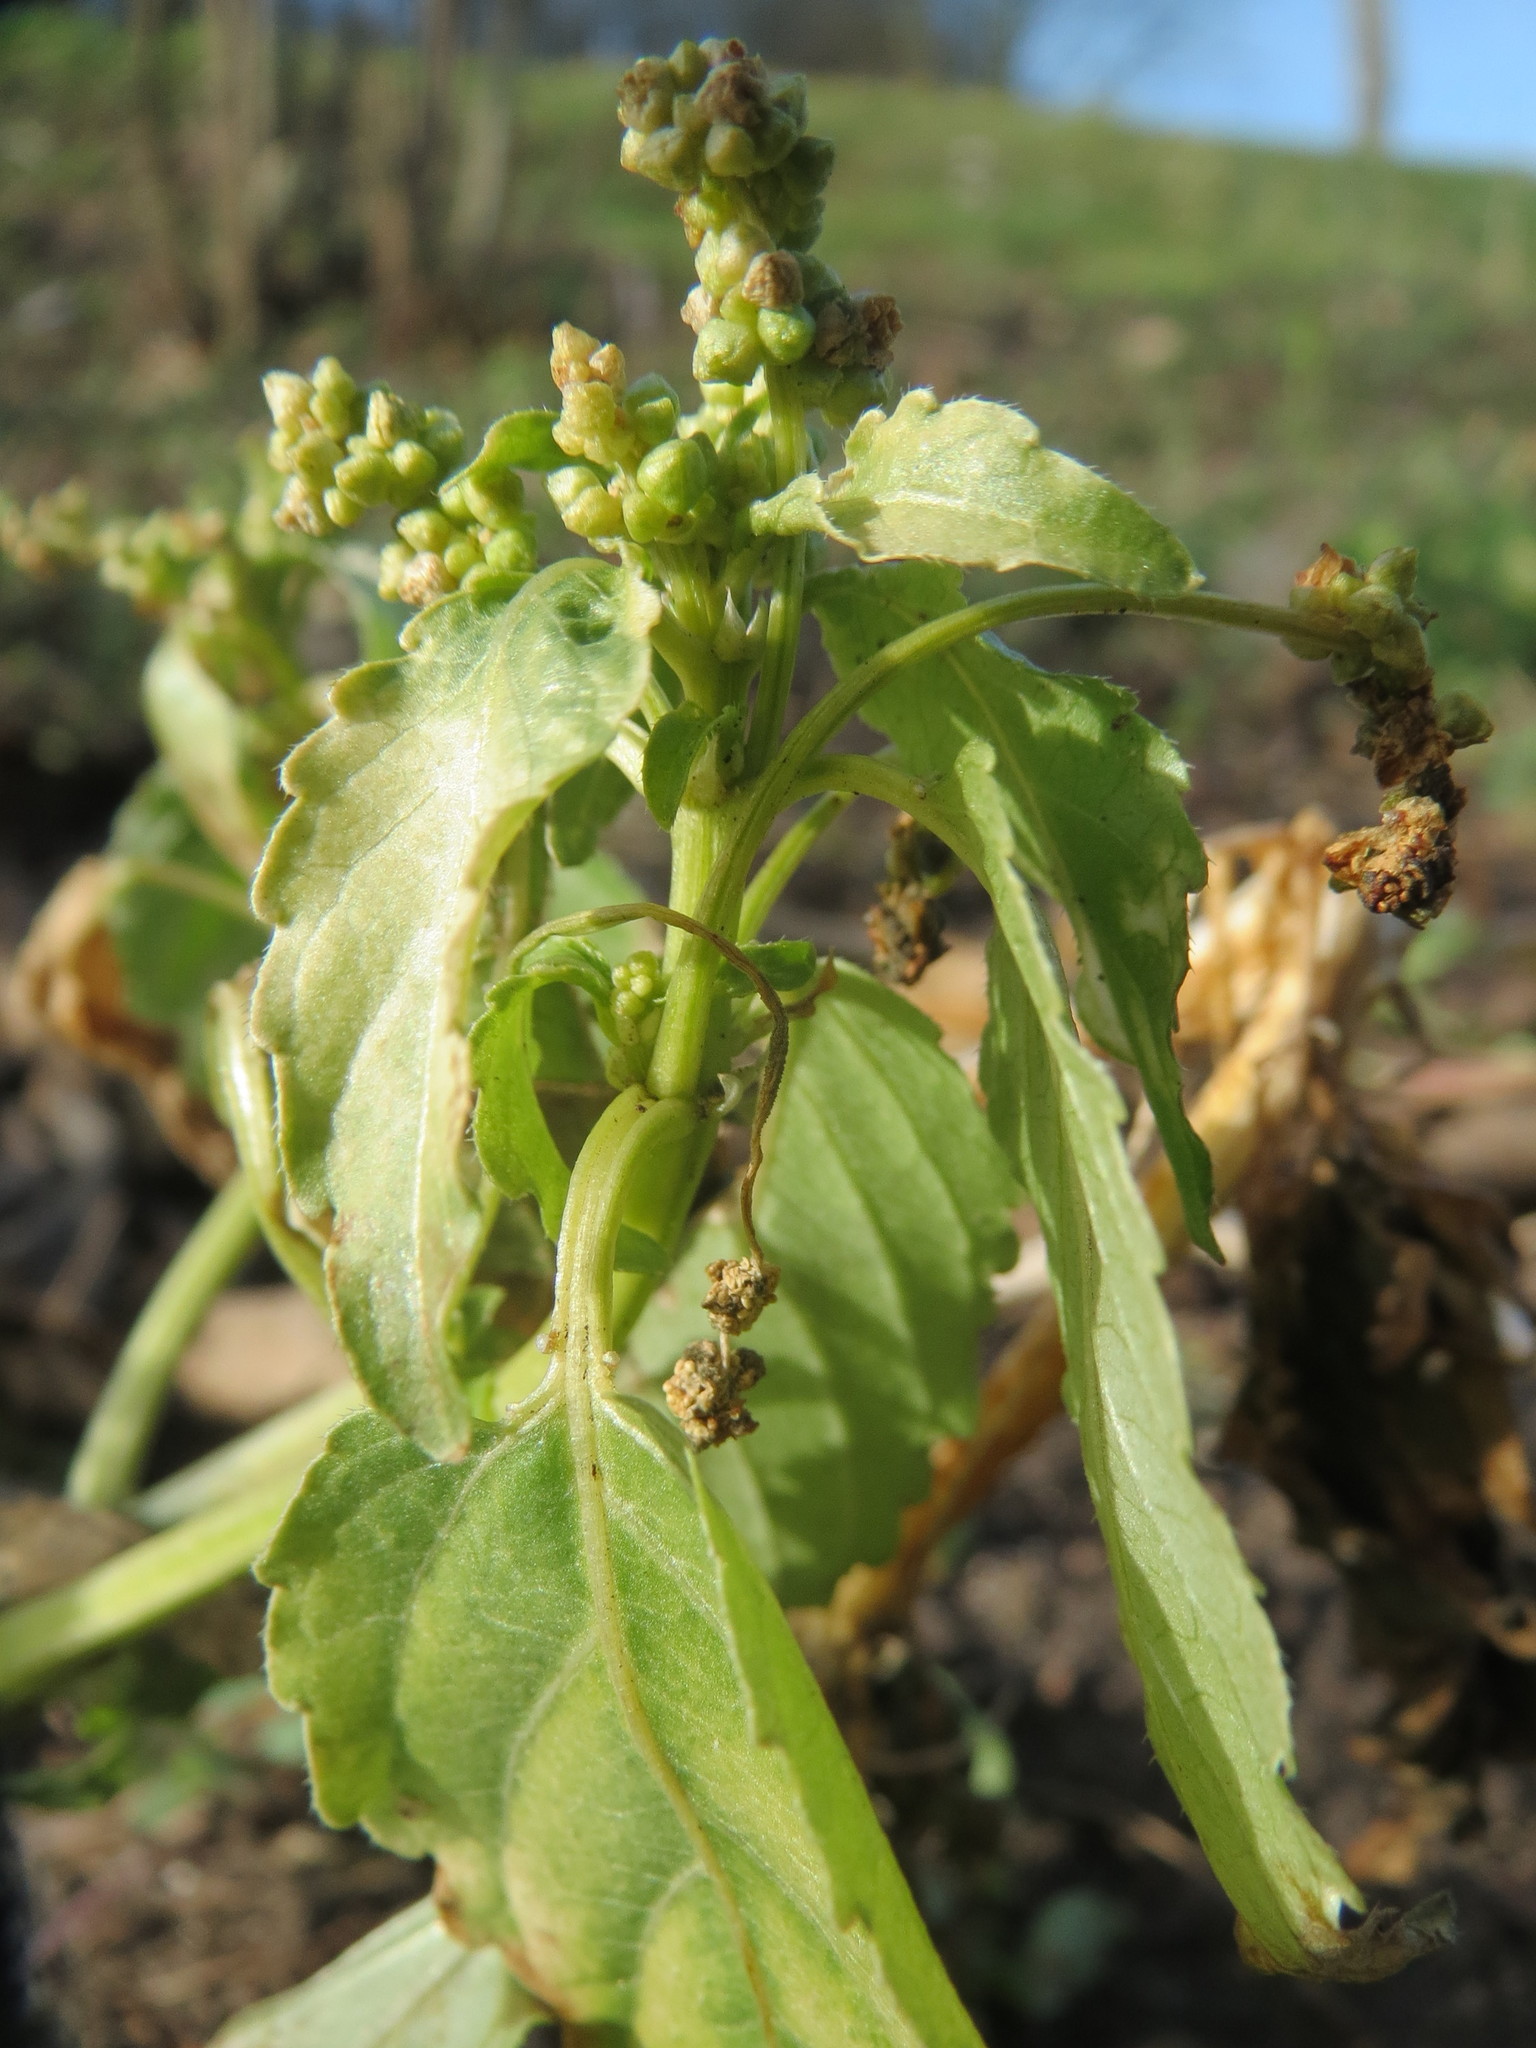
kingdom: Plantae
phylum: Tracheophyta
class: Magnoliopsida
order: Malpighiales
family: Euphorbiaceae
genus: Mercurialis
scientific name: Mercurialis annua
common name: Annual mercury
